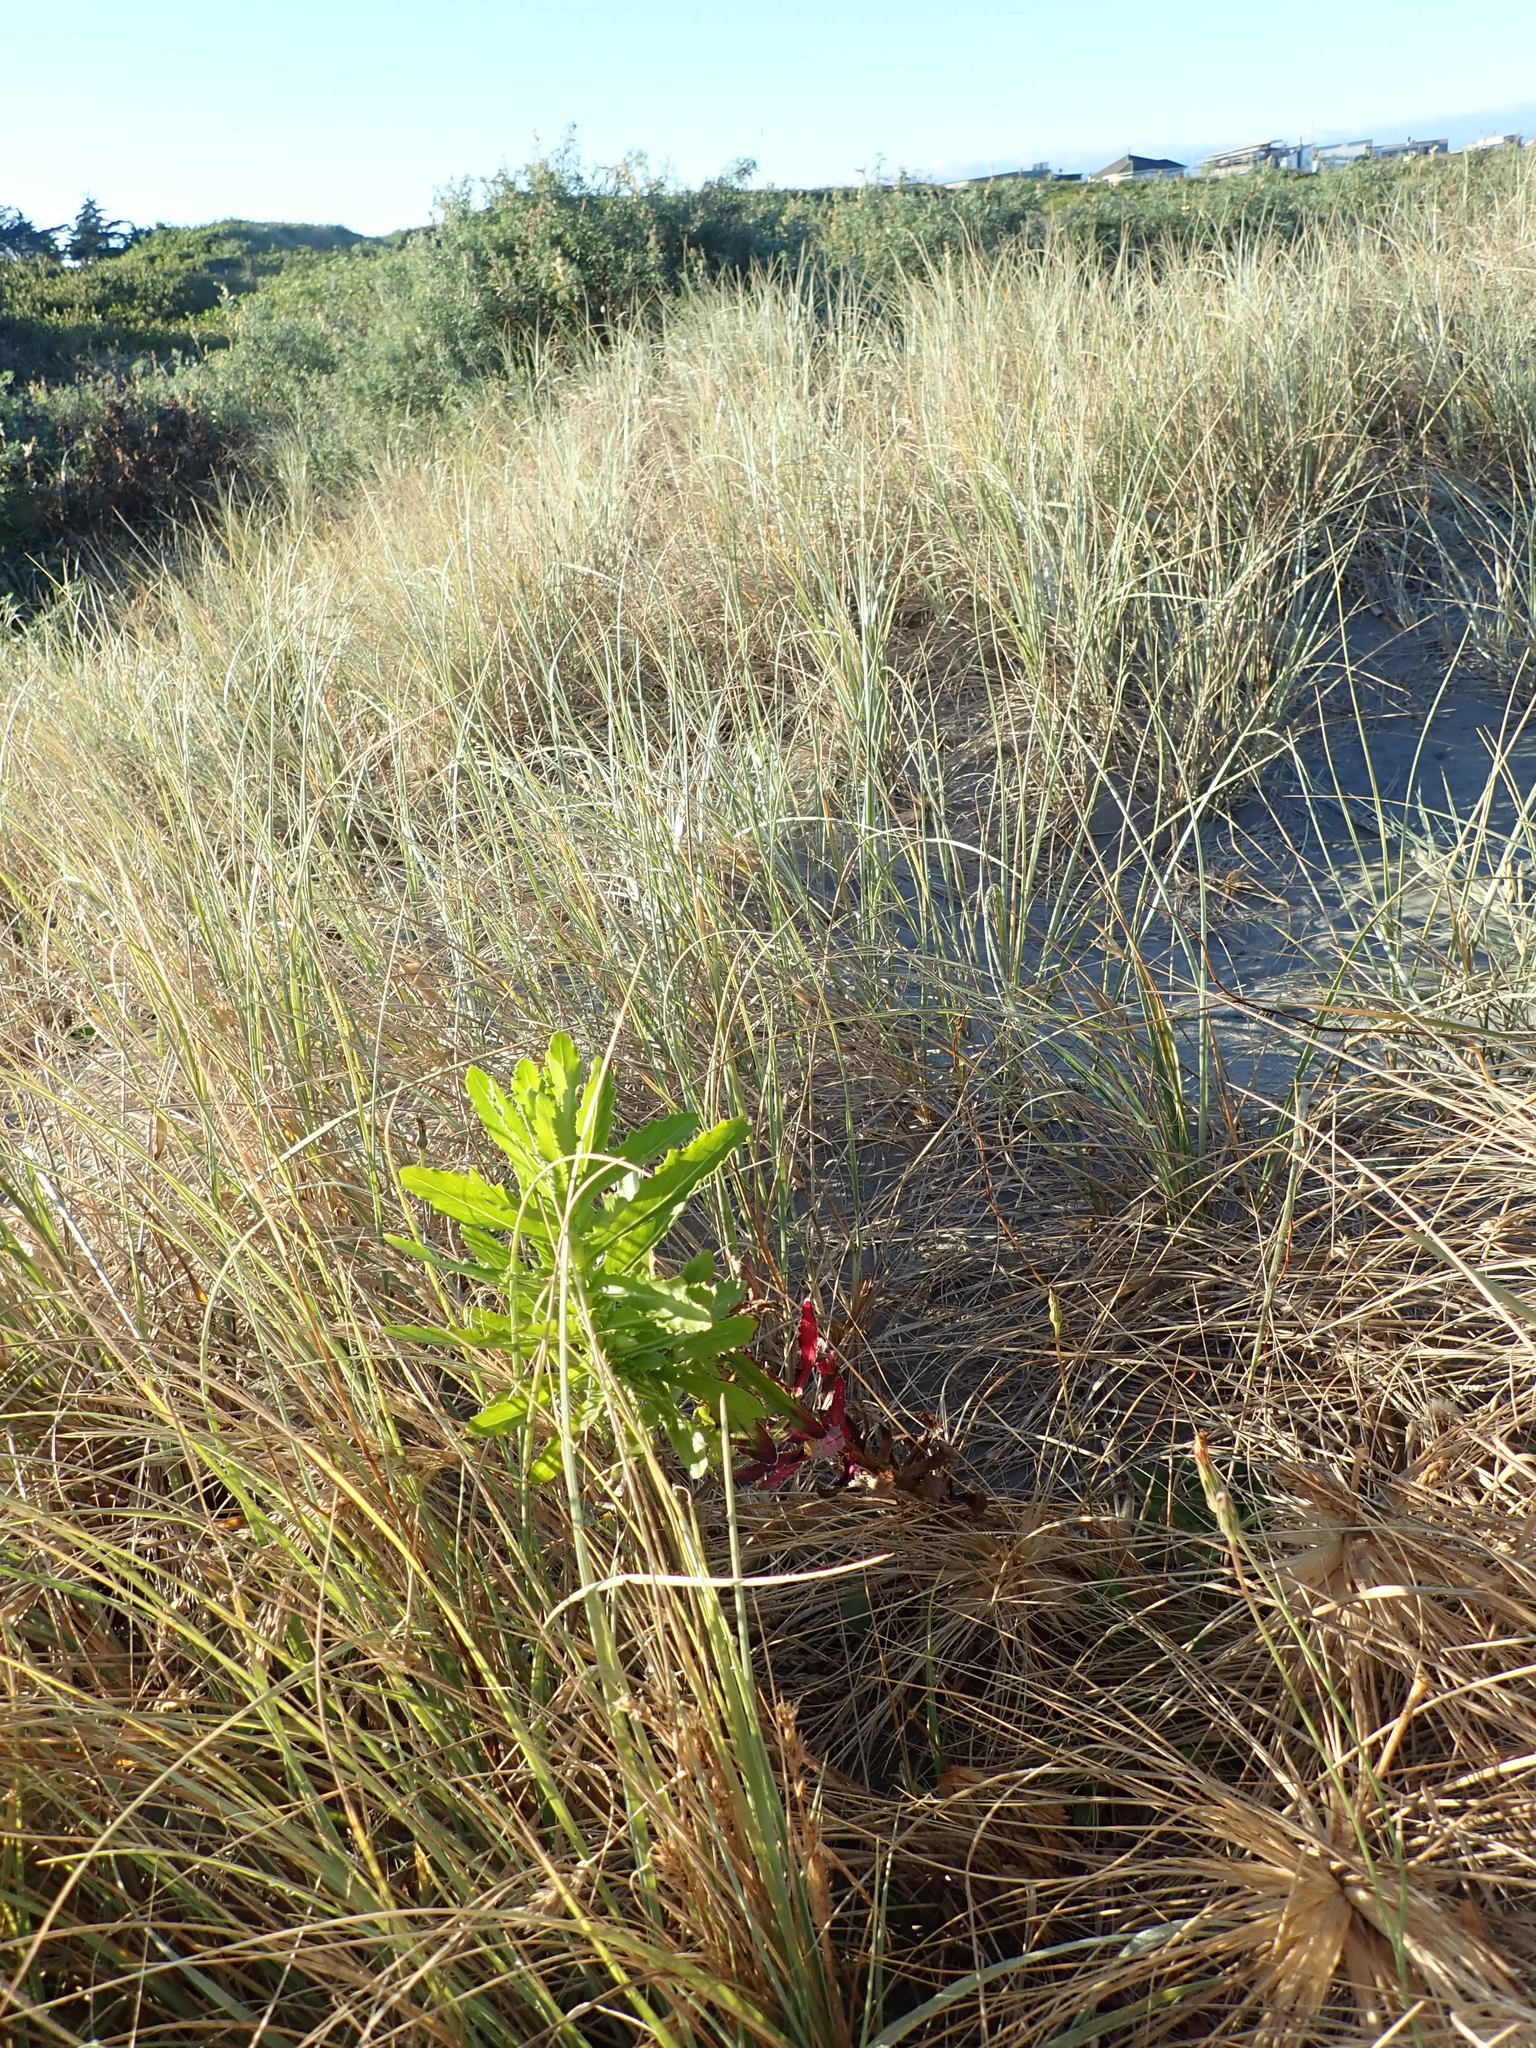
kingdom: Plantae
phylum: Tracheophyta
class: Magnoliopsida
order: Asterales
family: Asteraceae
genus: Senecio
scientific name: Senecio glastifolius
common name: Woad-leaved ragwort
